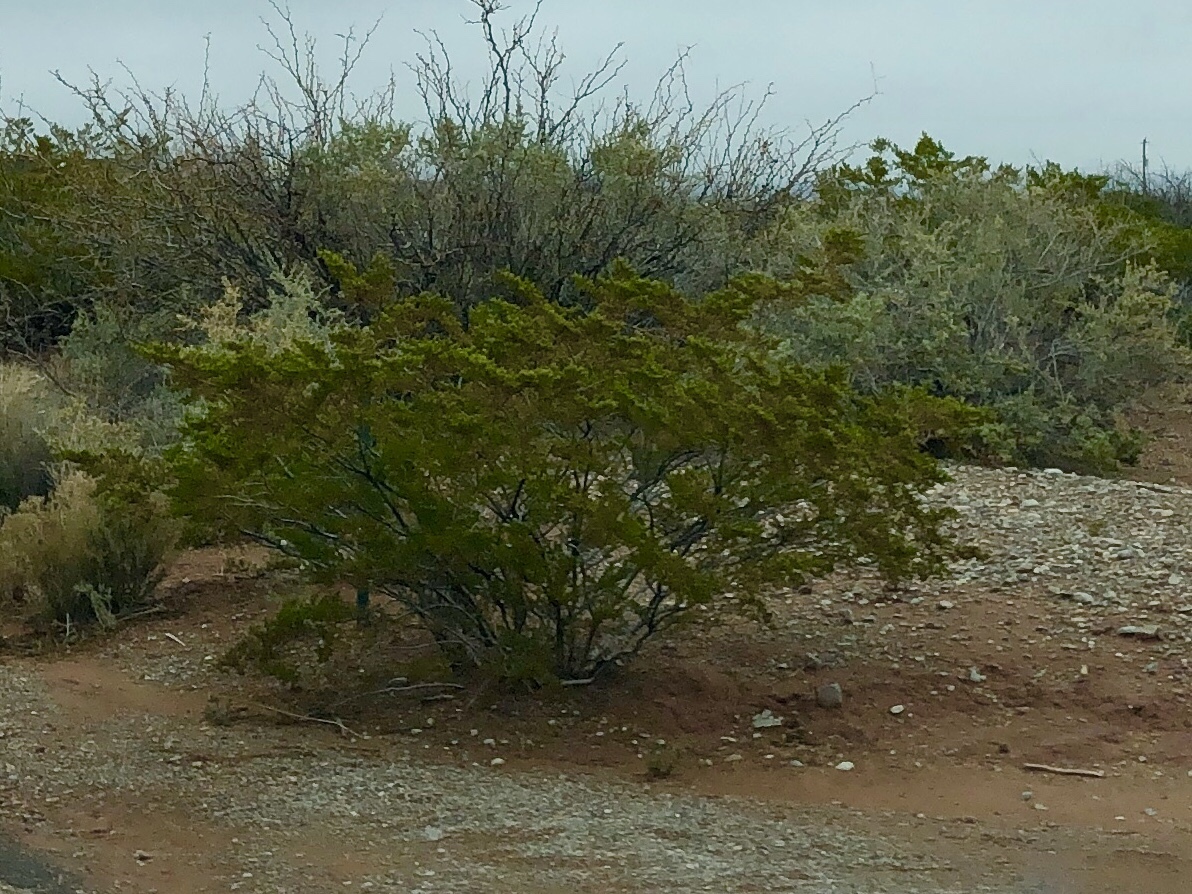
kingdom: Plantae
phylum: Tracheophyta
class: Magnoliopsida
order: Zygophyllales
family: Zygophyllaceae
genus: Larrea
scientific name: Larrea tridentata
